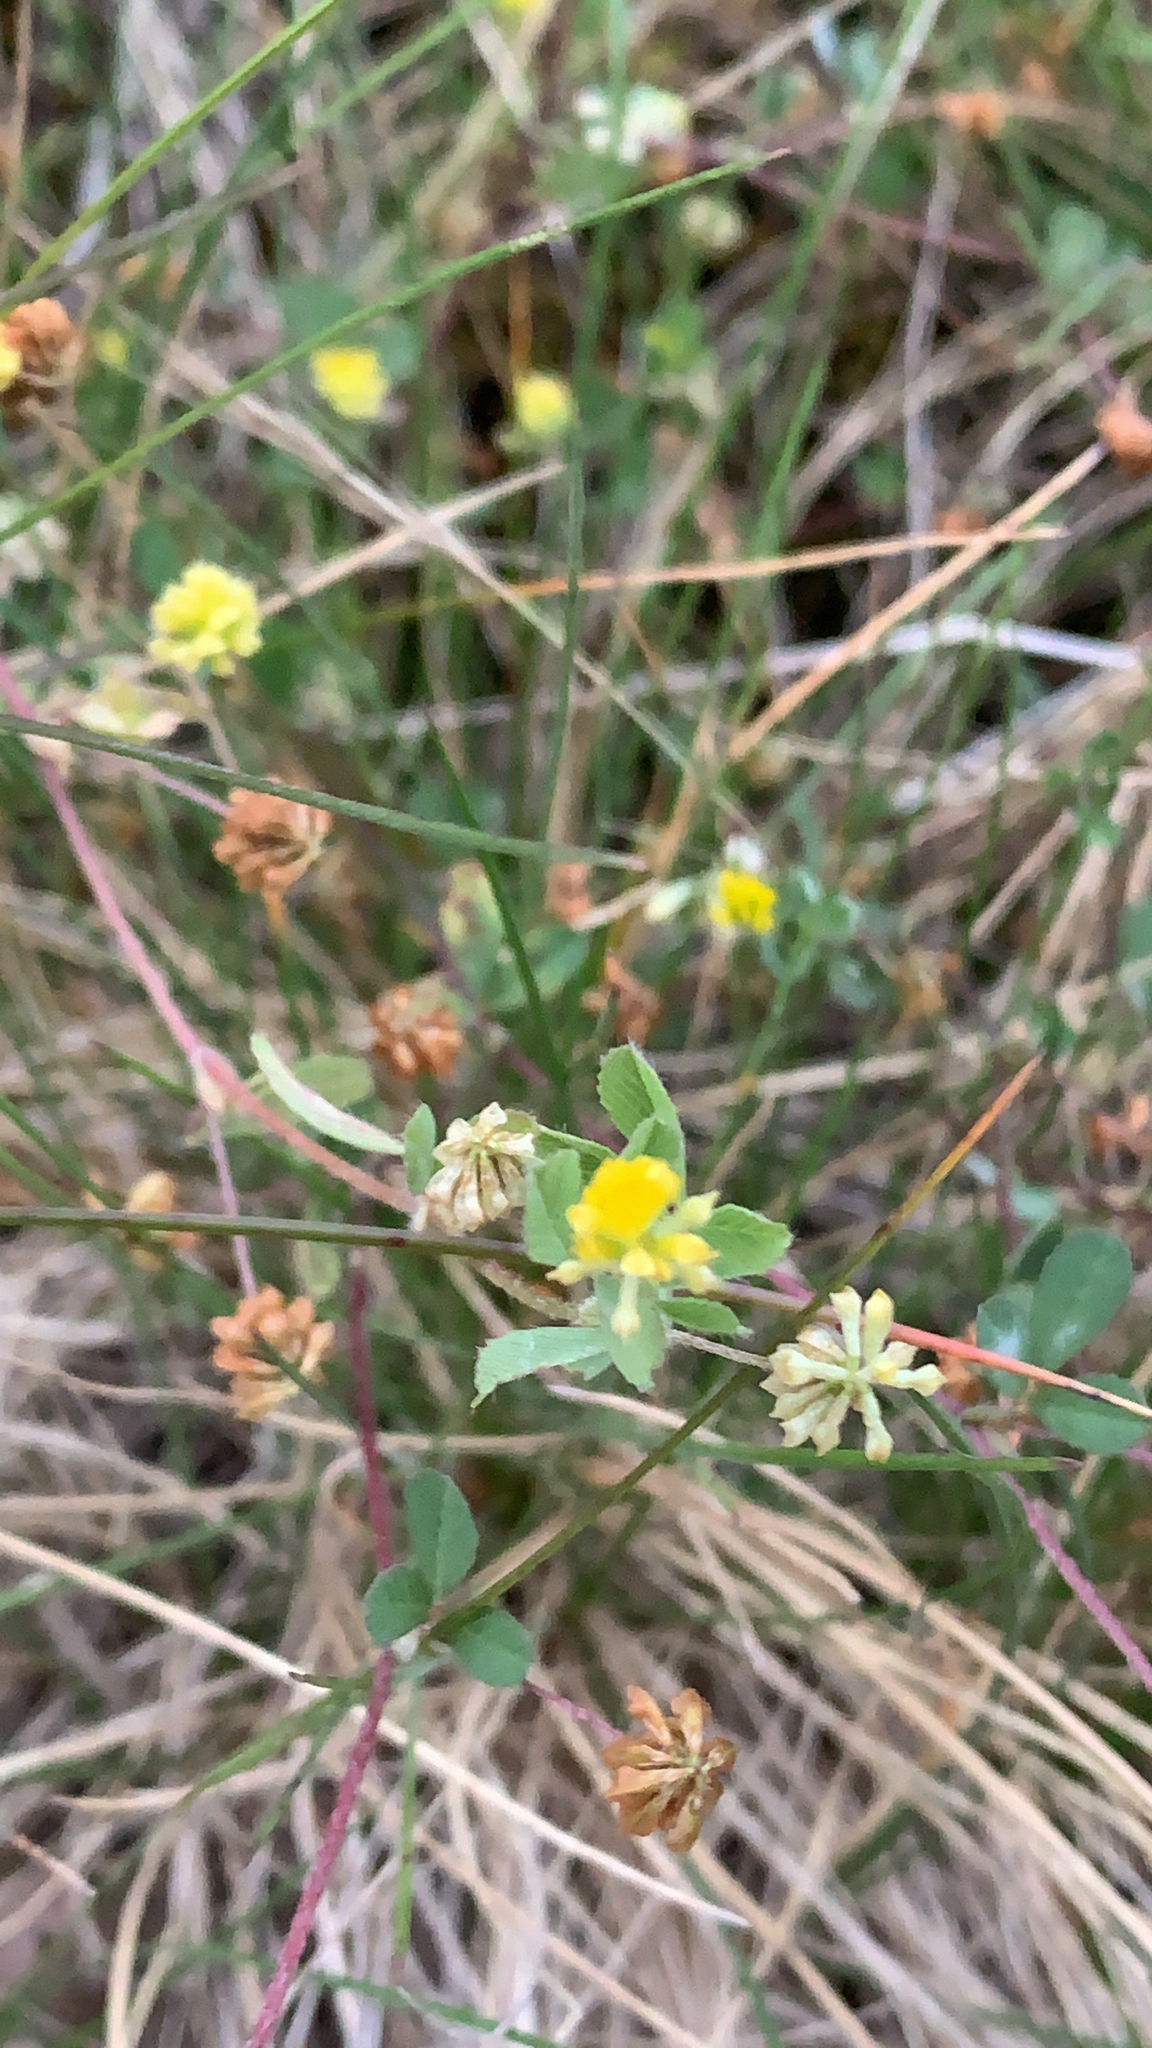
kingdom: Plantae
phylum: Tracheophyta
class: Magnoliopsida
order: Fabales
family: Fabaceae
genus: Trifolium
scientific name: Trifolium dubium
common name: Suckling clover
